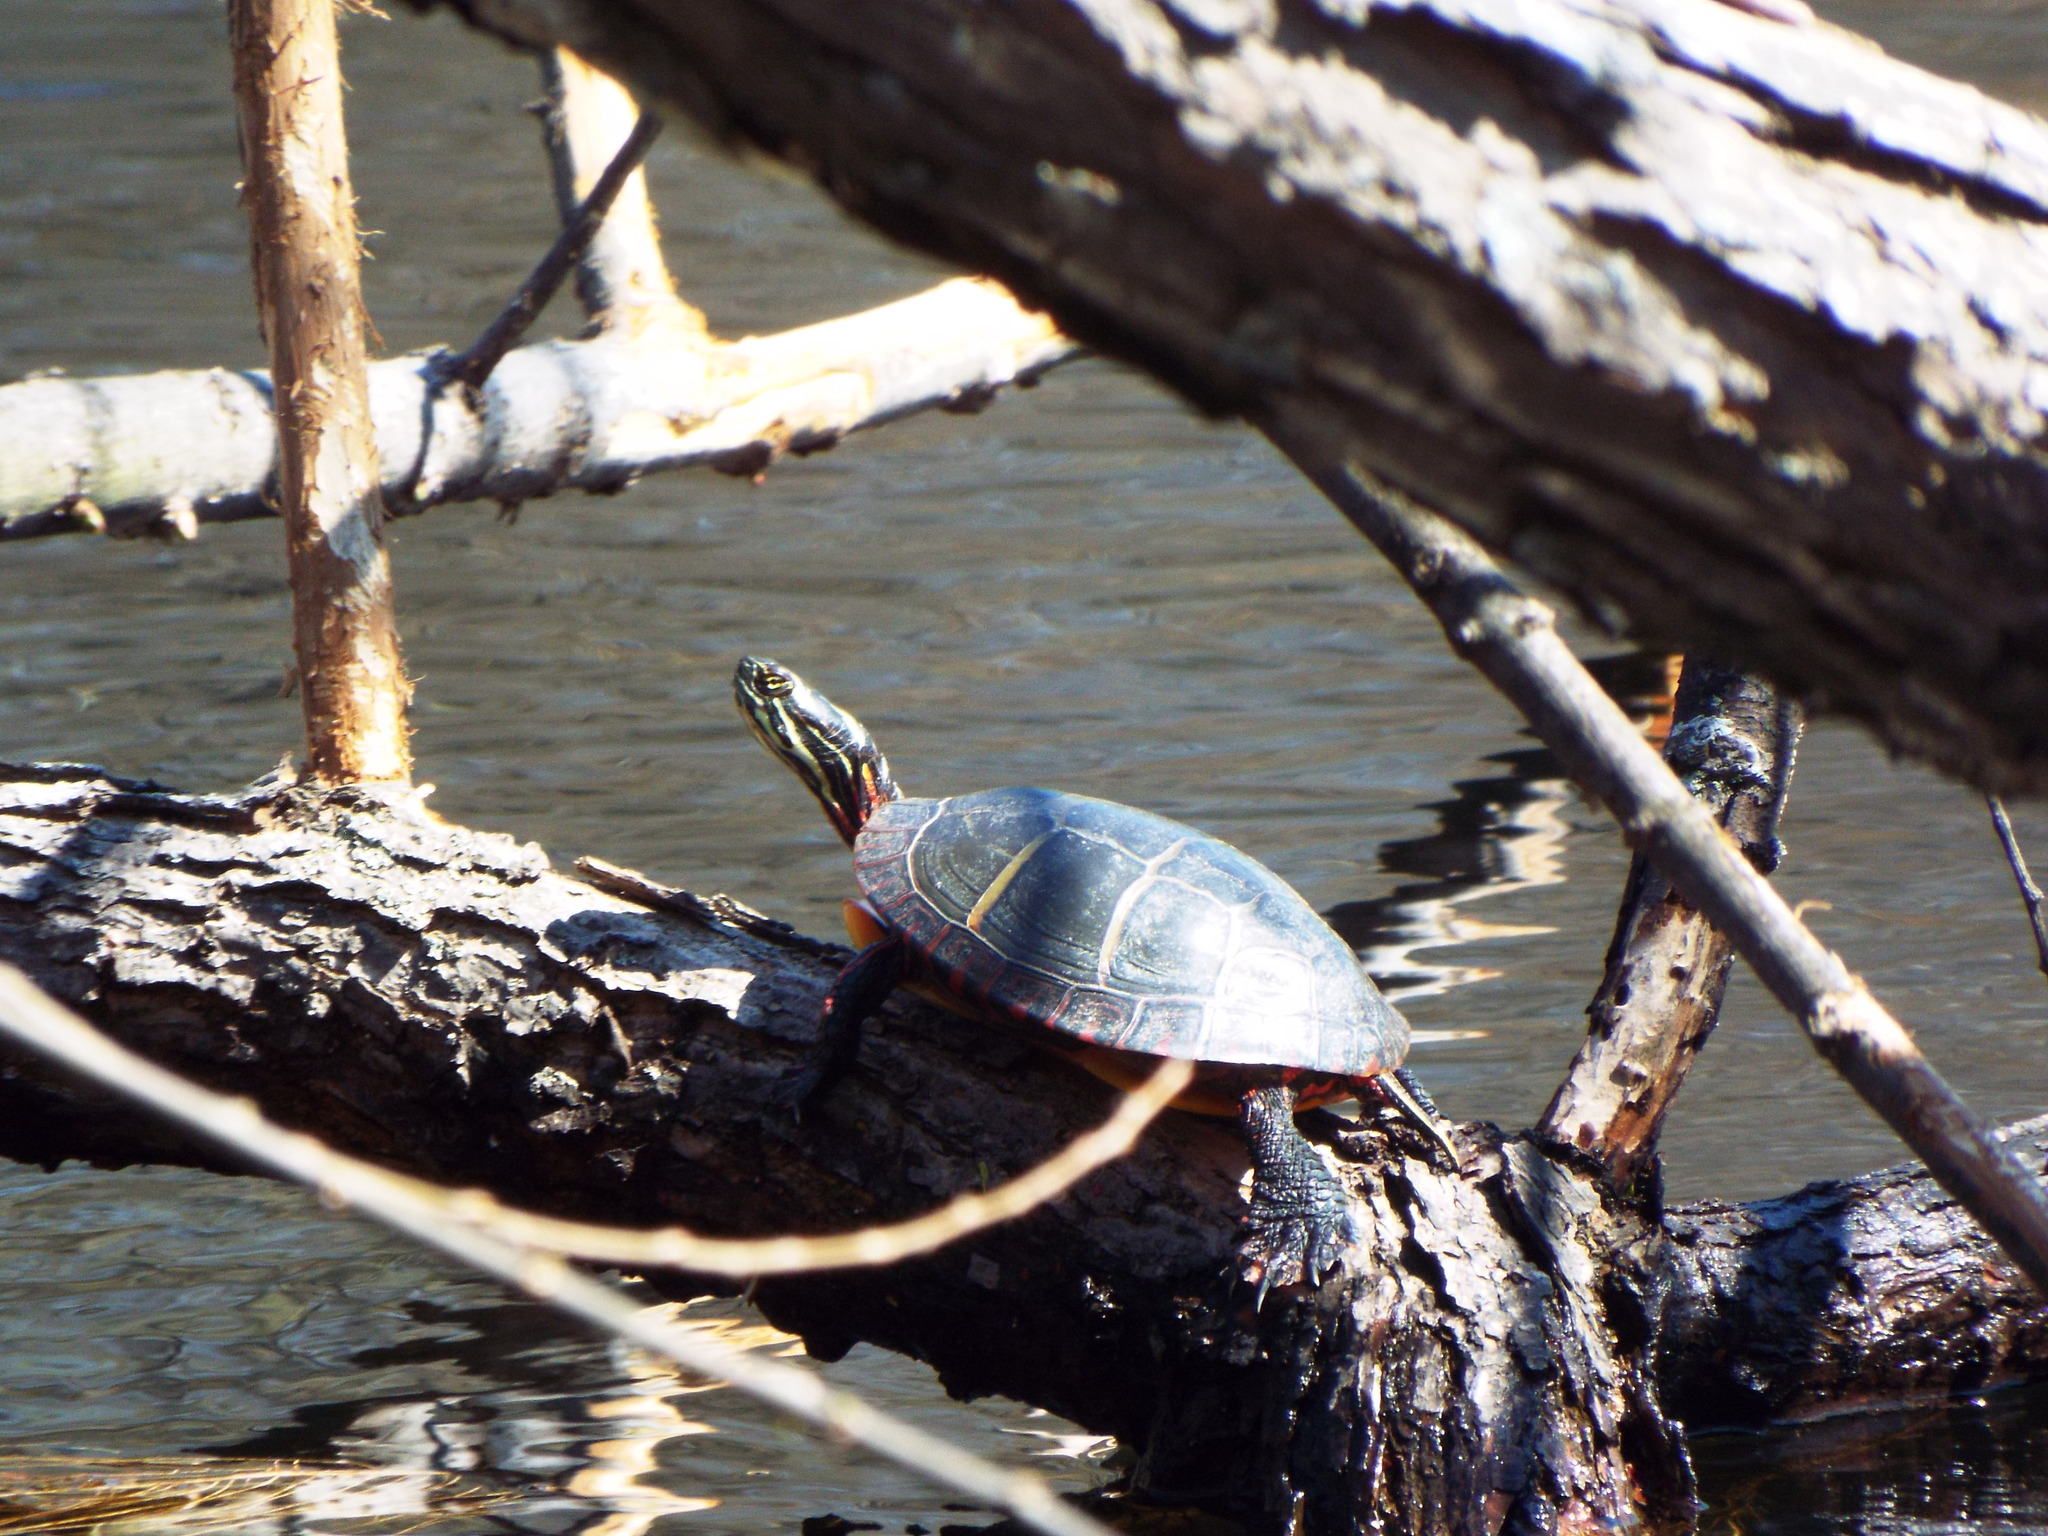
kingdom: Animalia
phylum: Chordata
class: Testudines
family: Emydidae
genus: Chrysemys
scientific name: Chrysemys picta
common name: Painted turtle
